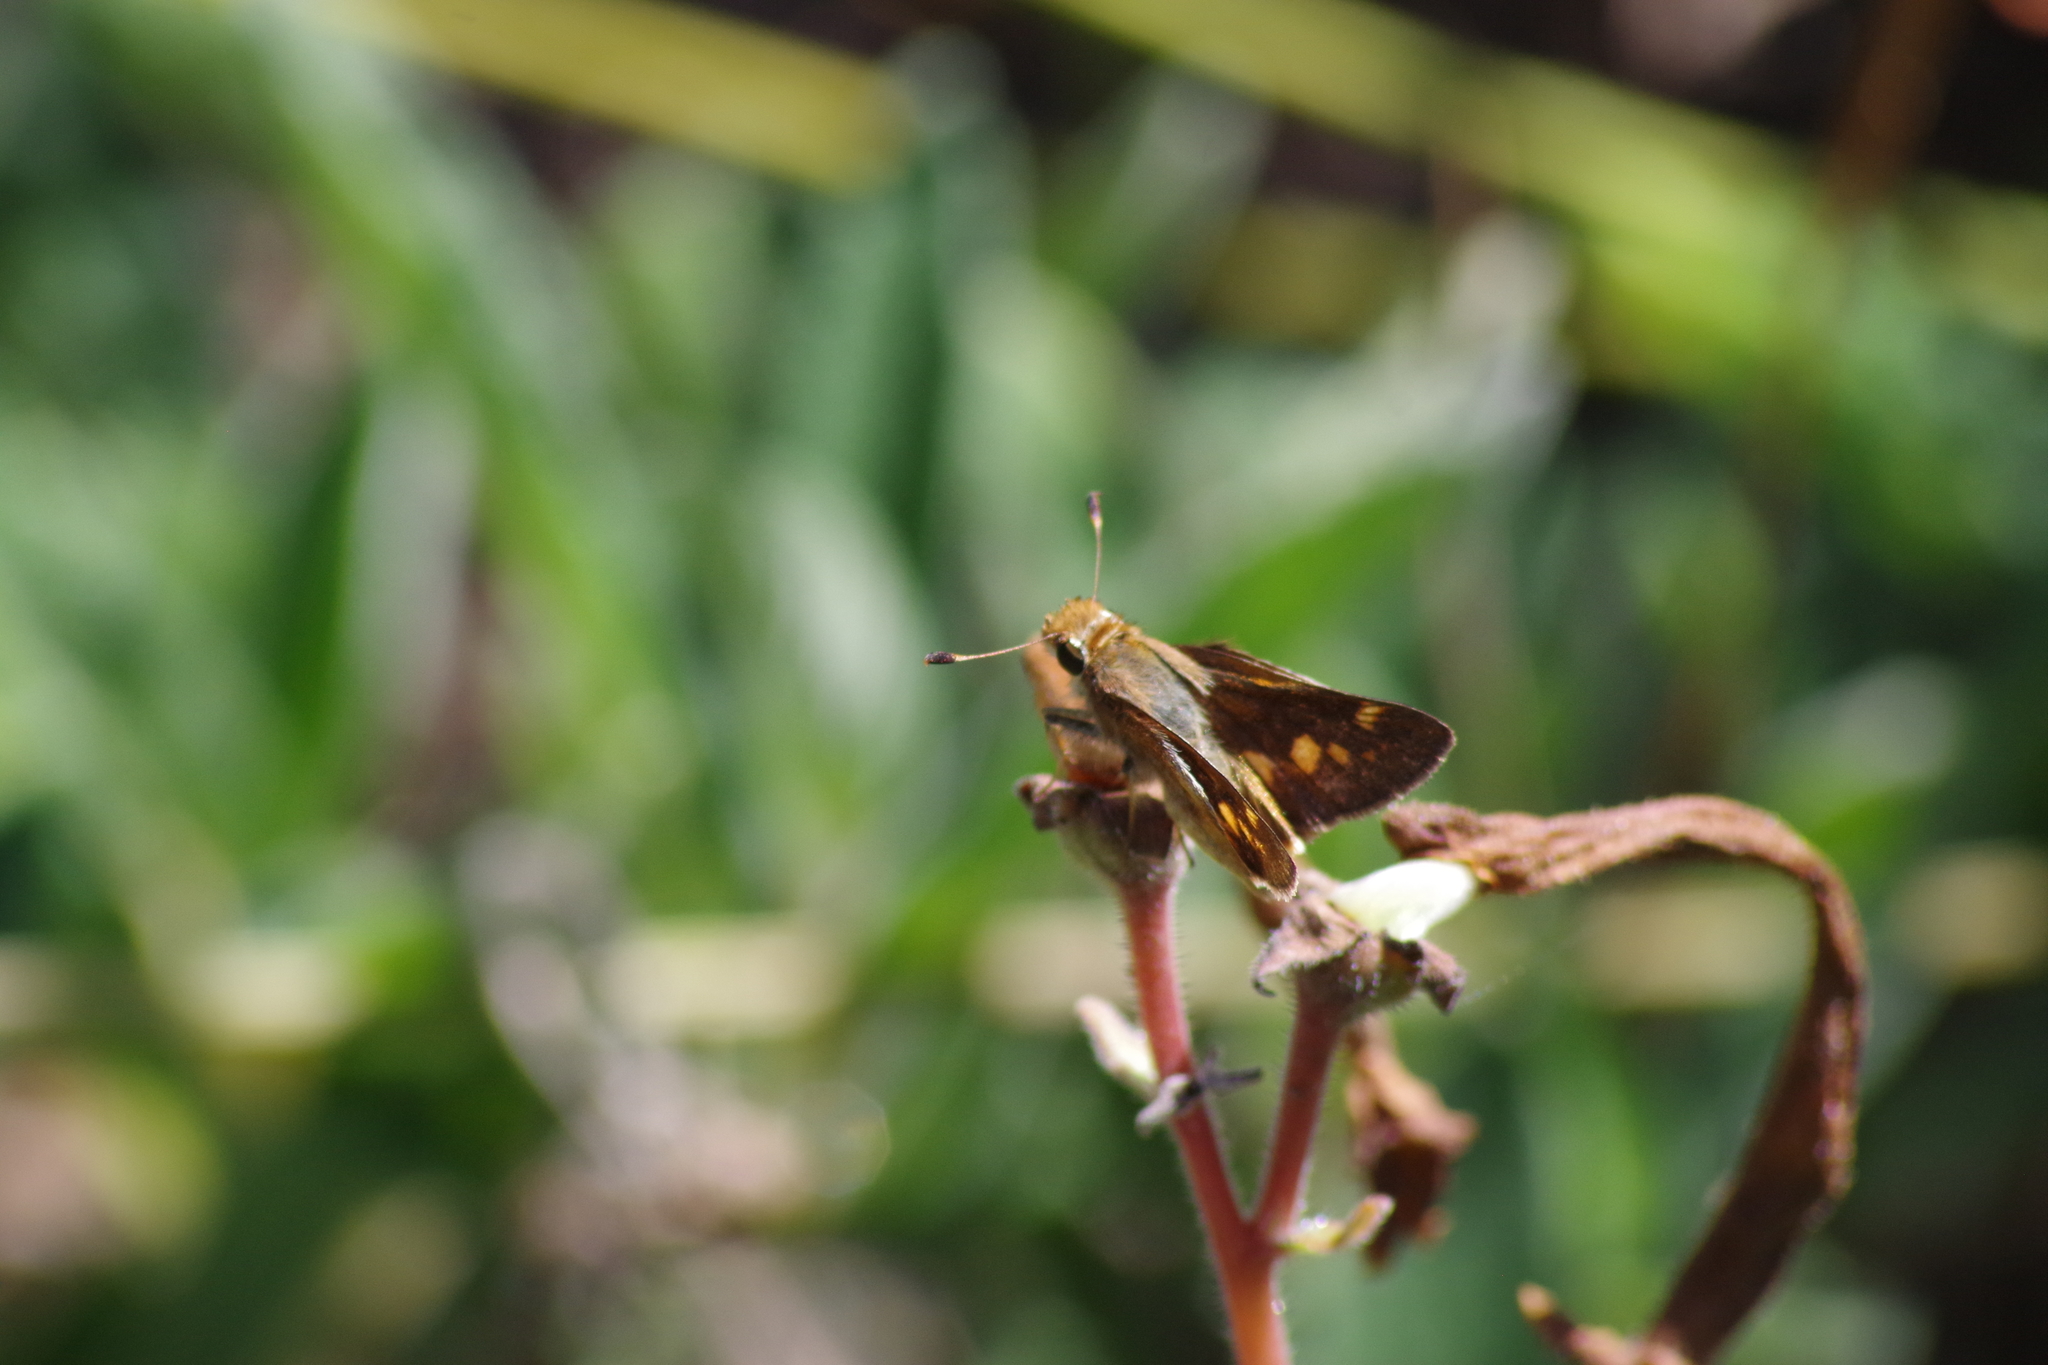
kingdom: Animalia
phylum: Arthropoda
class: Insecta
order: Lepidoptera
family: Hesperiidae
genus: Lon
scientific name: Lon melane
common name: Umber skipper
